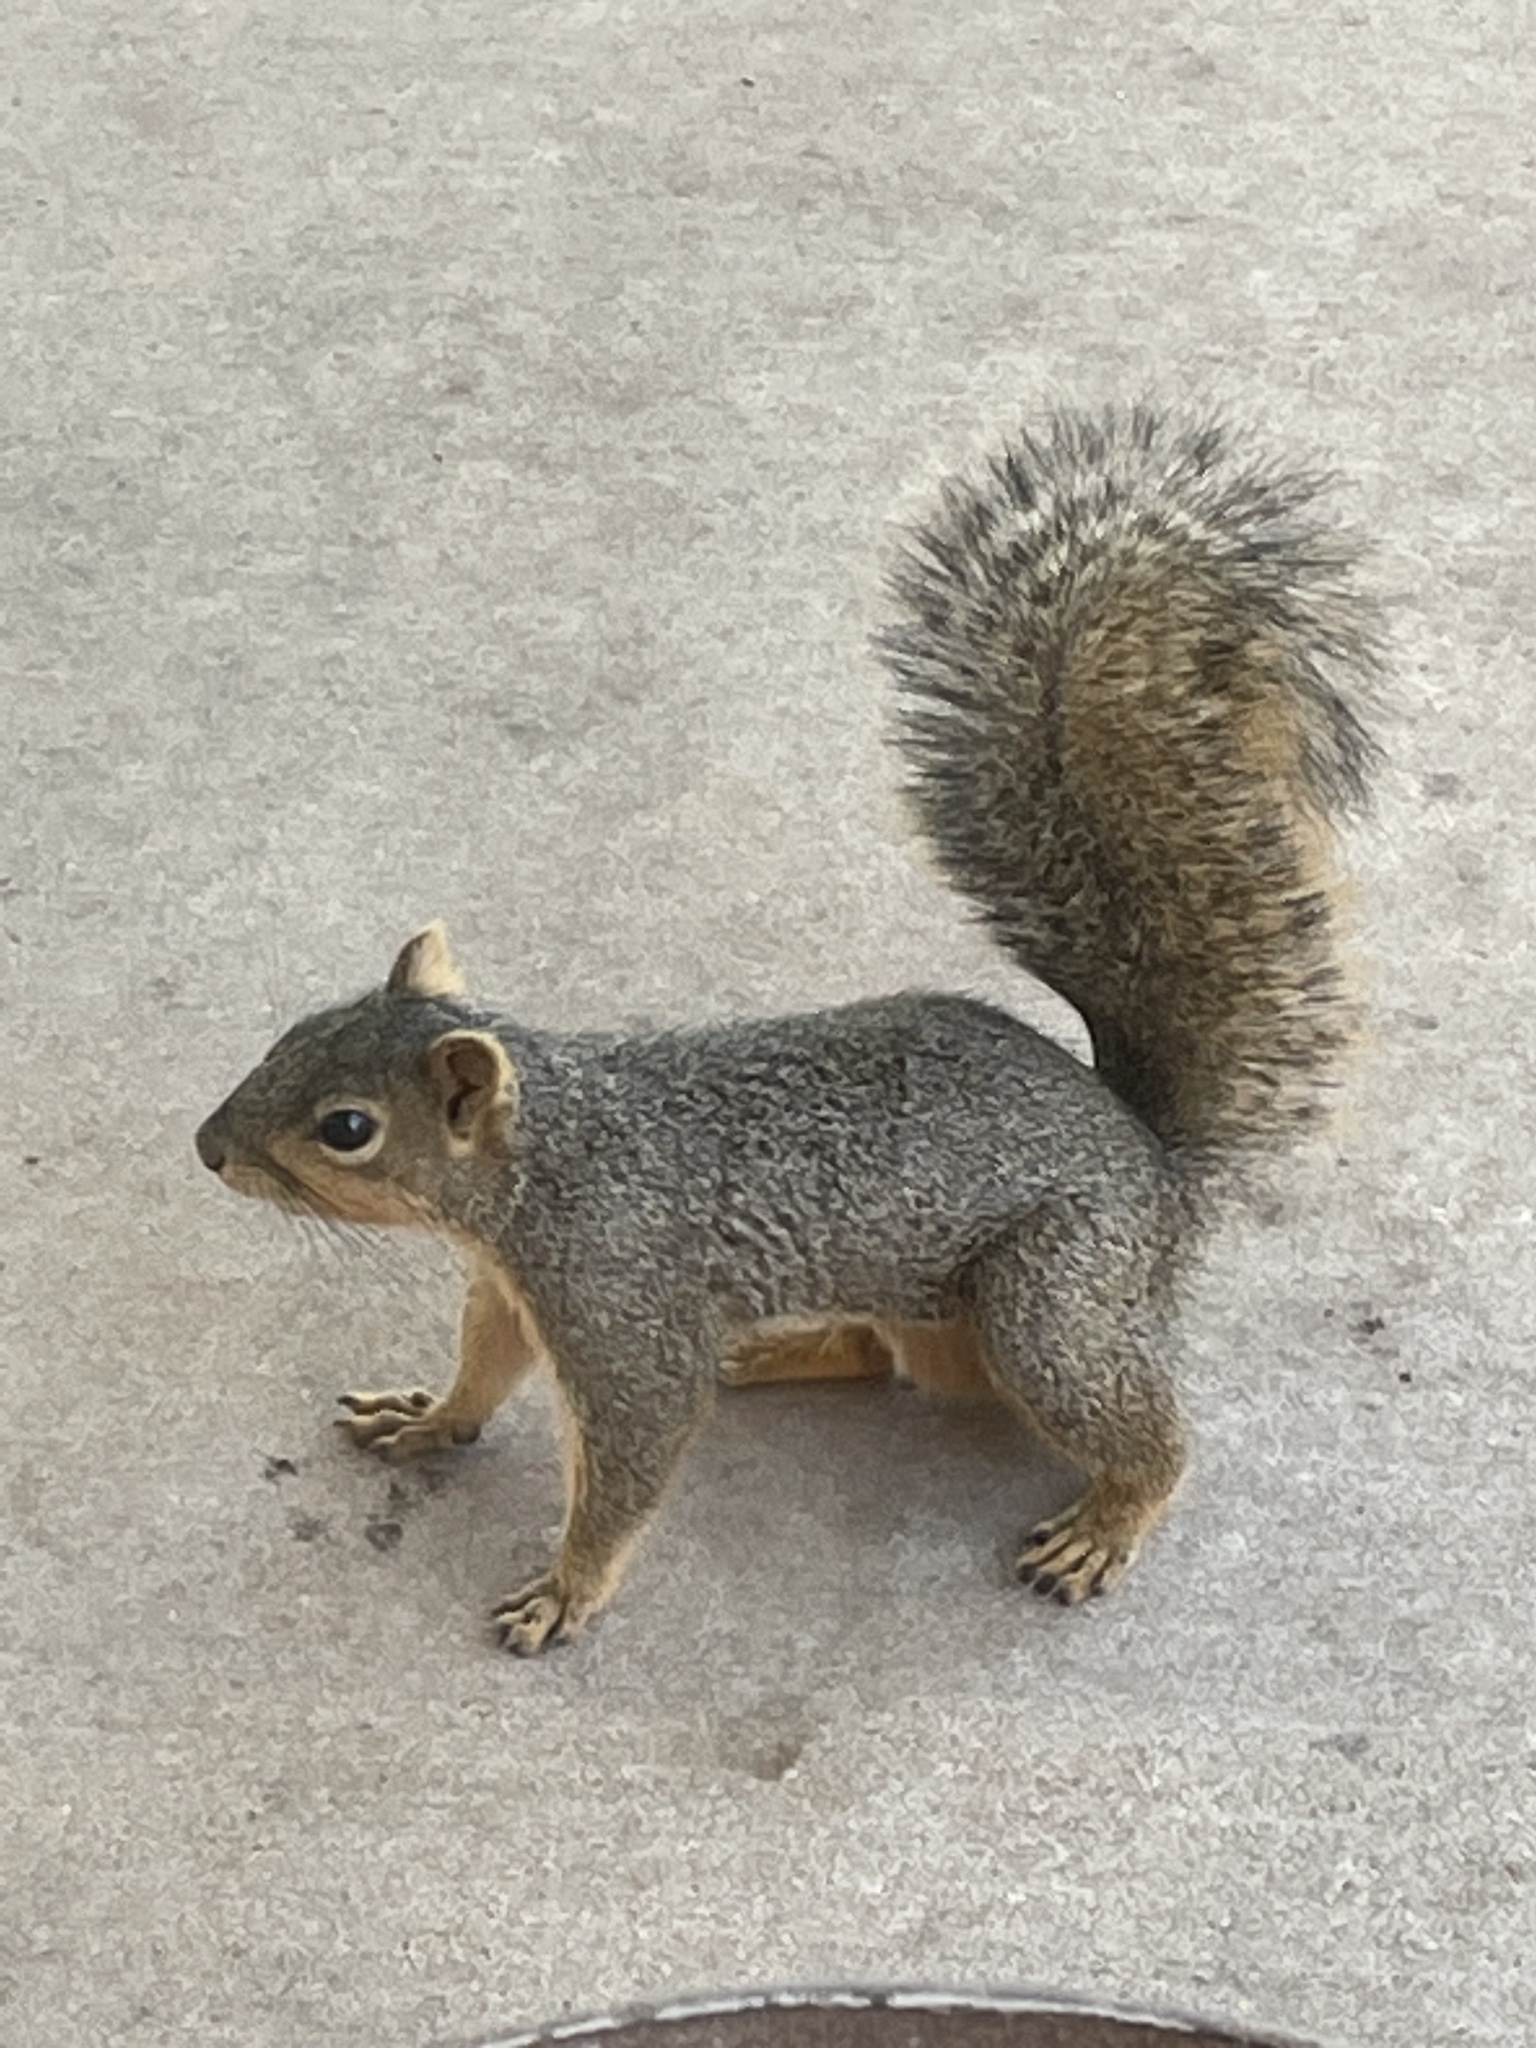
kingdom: Animalia
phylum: Chordata
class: Mammalia
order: Rodentia
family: Sciuridae
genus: Sciurus
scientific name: Sciurus niger
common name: Fox squirrel
